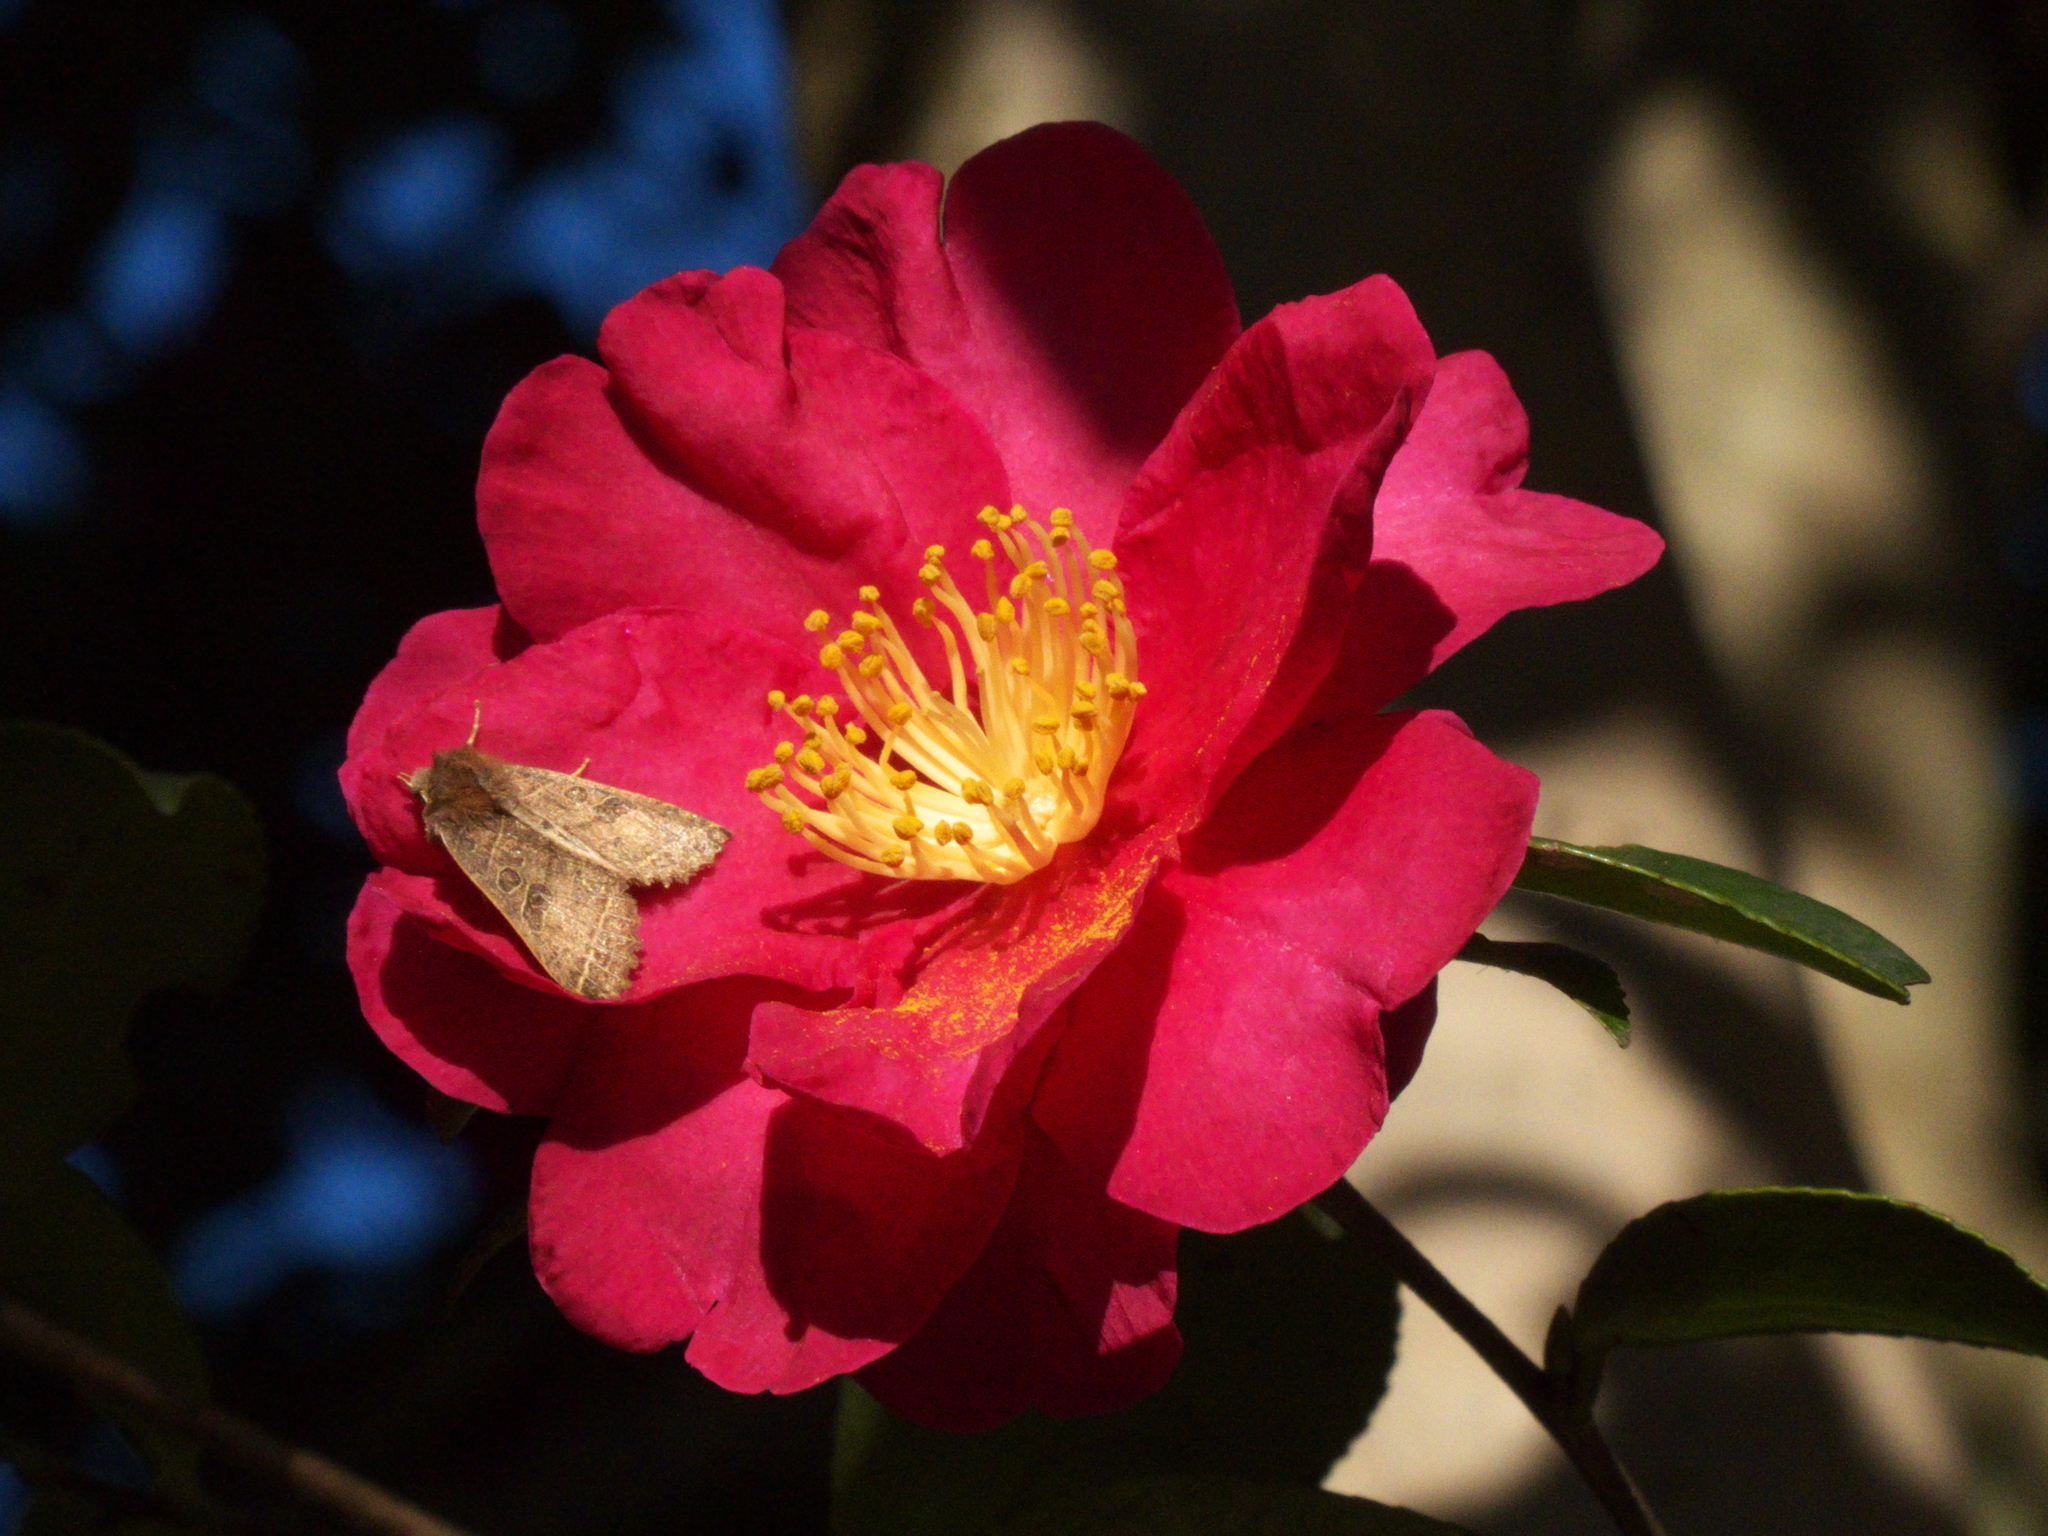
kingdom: Animalia
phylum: Arthropoda
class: Insecta
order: Lepidoptera
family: Noctuidae
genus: Elwesia
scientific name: Elwesia sugii
